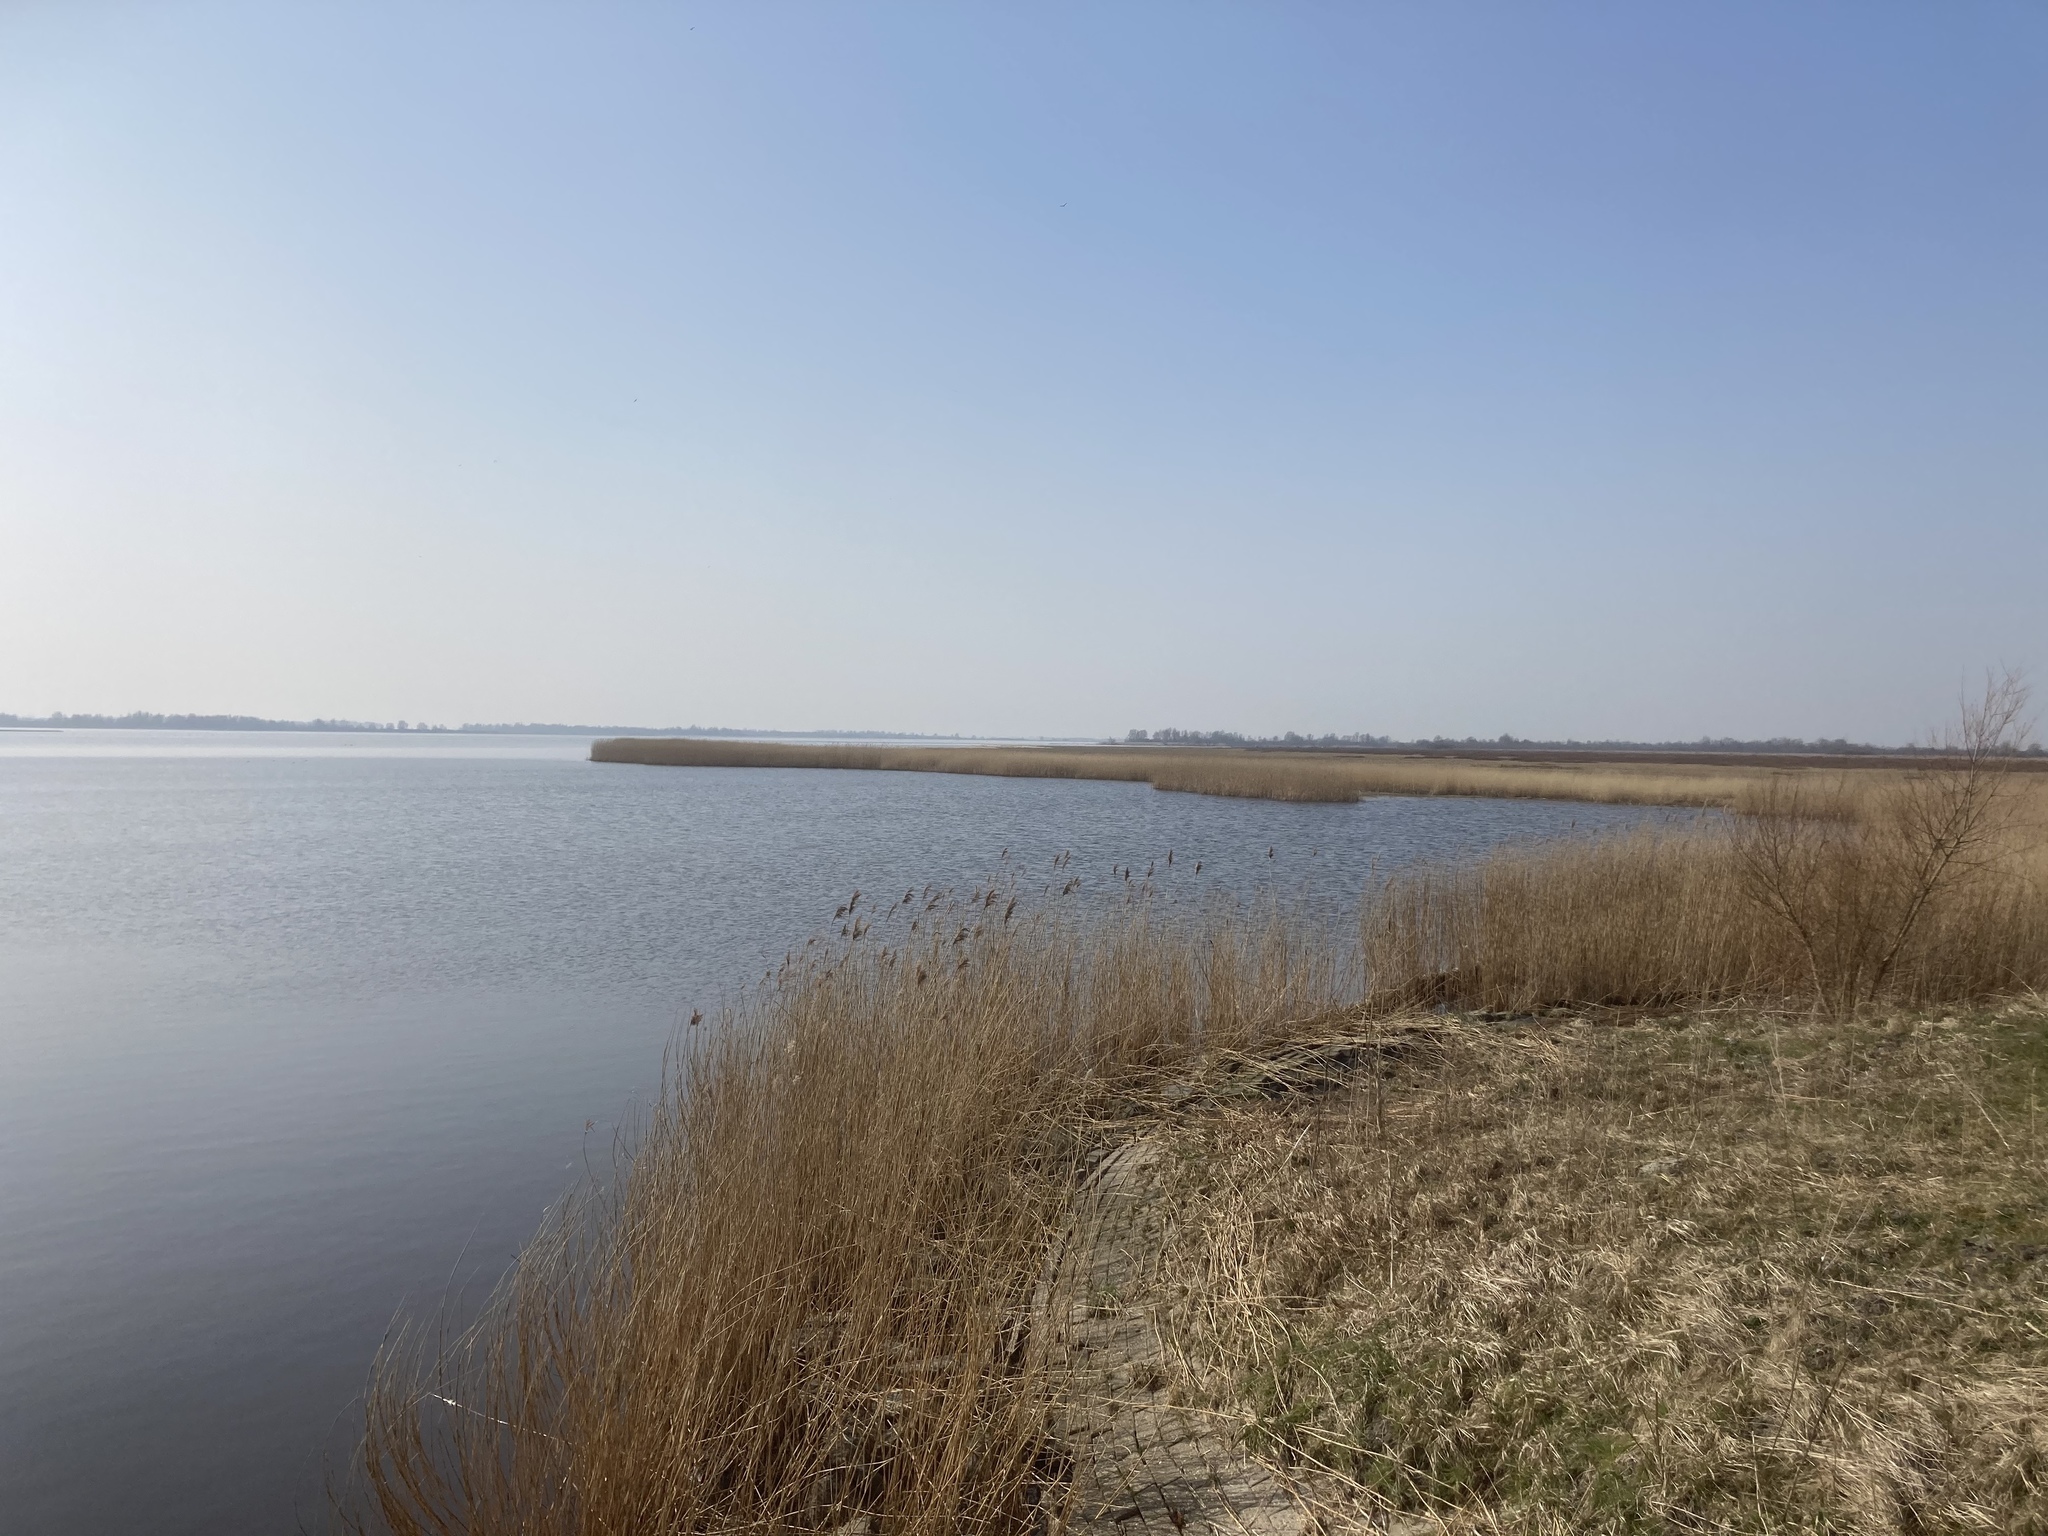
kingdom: Plantae
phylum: Tracheophyta
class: Liliopsida
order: Poales
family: Poaceae
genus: Phragmites
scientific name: Phragmites australis
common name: Common reed
